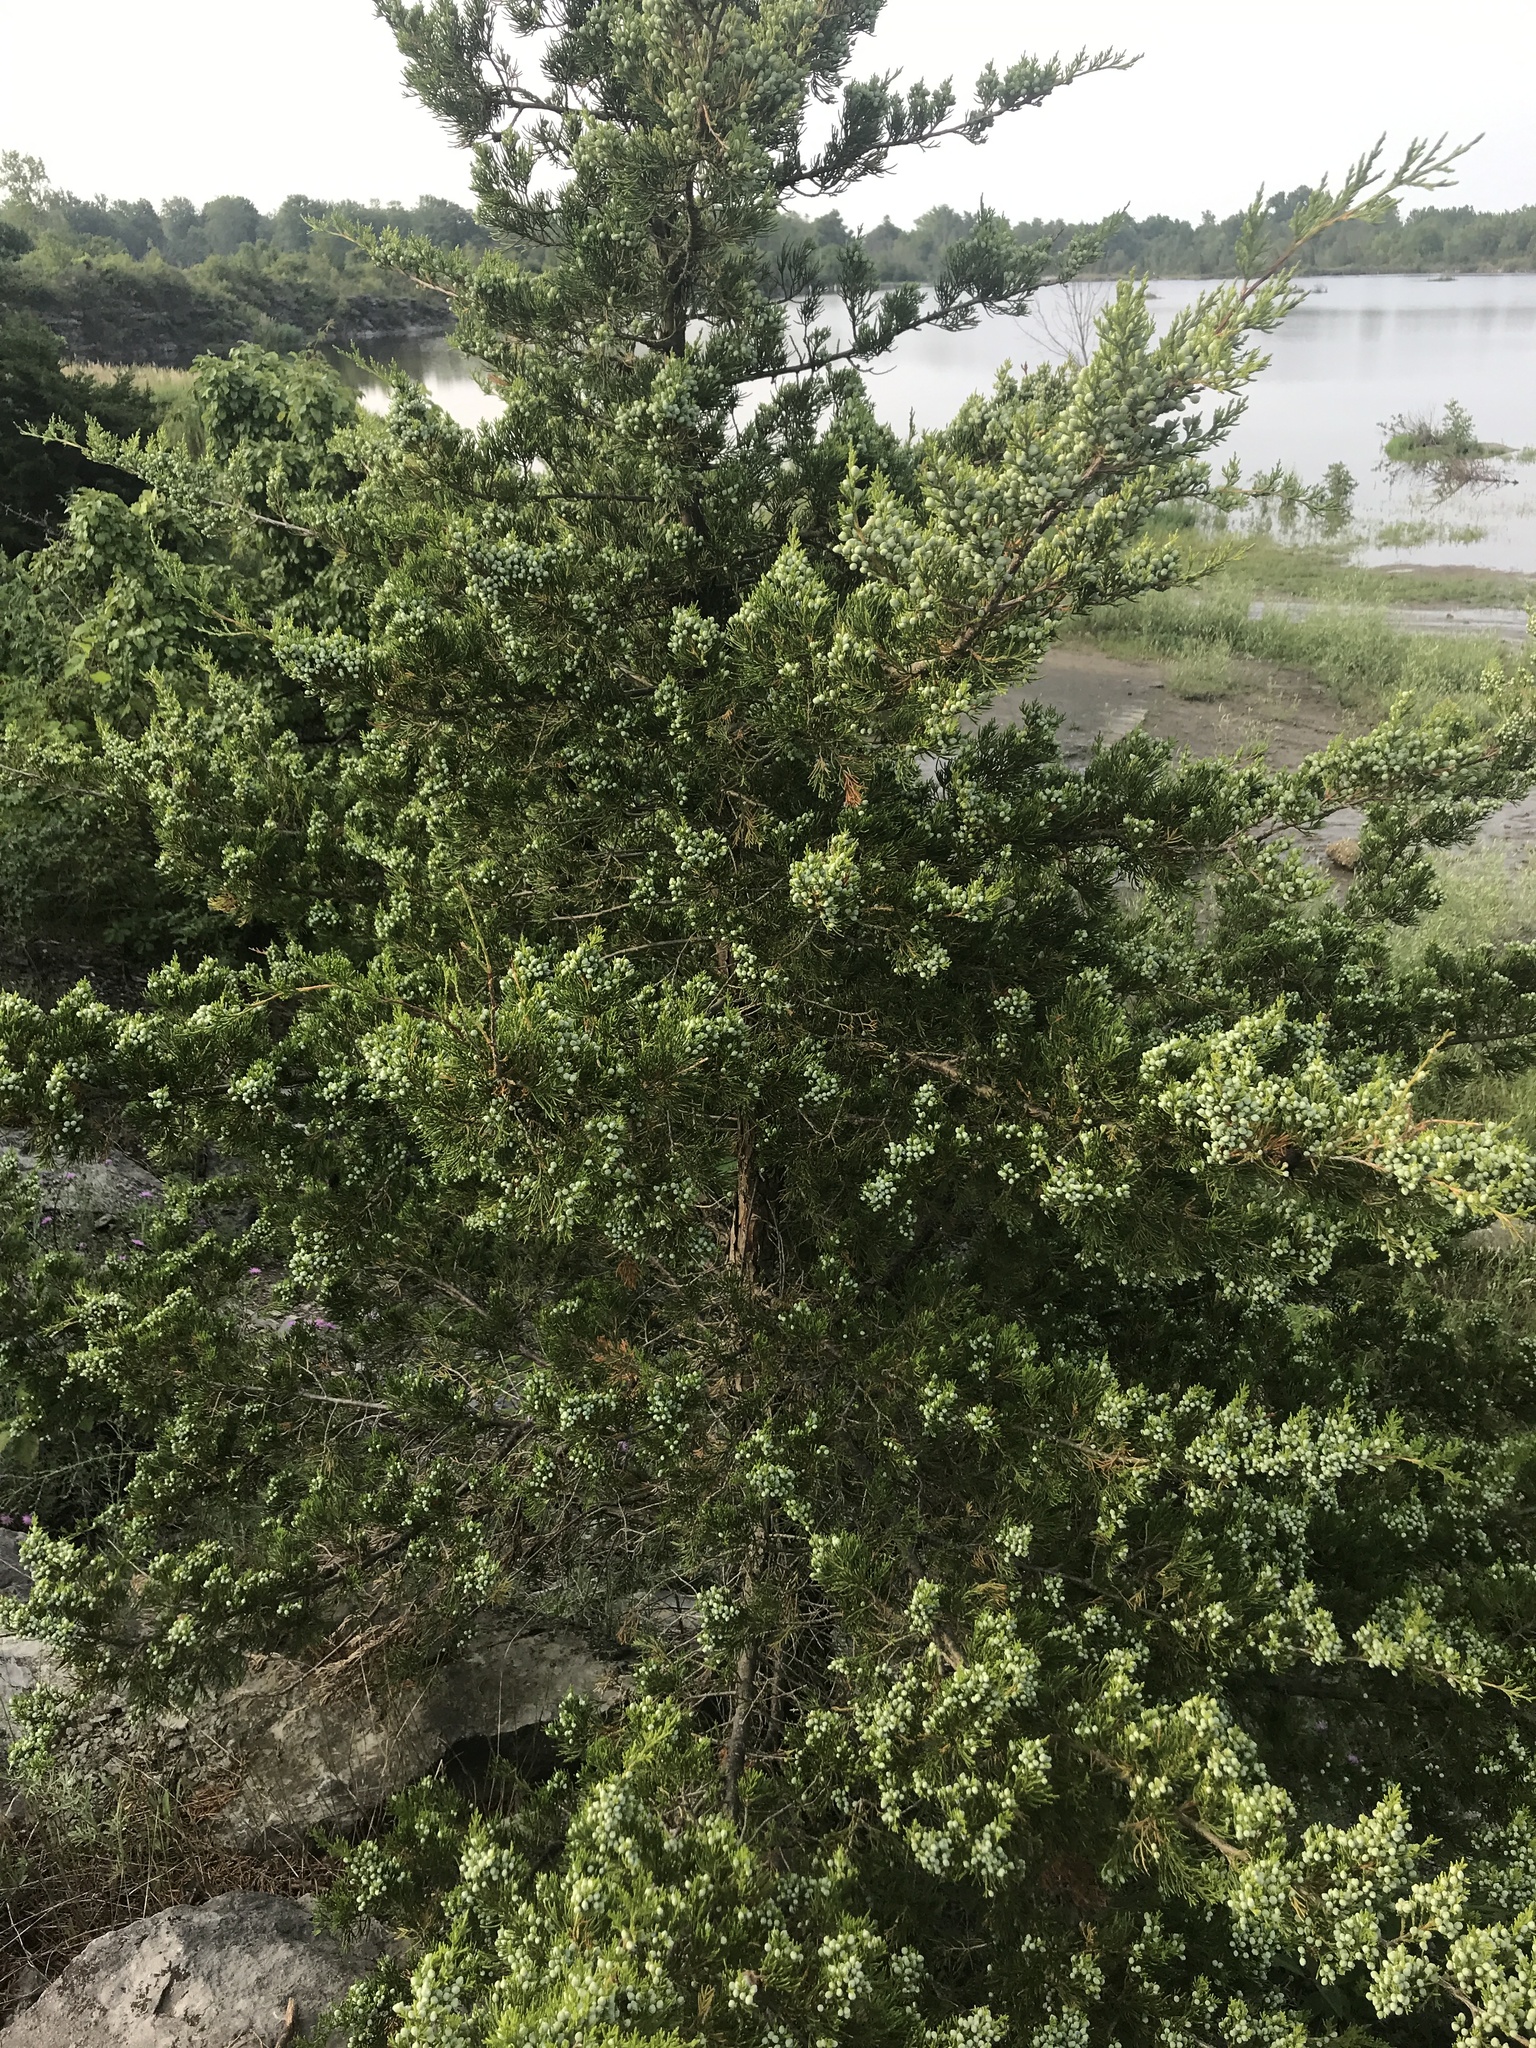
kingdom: Plantae
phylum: Tracheophyta
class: Pinopsida
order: Pinales
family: Cupressaceae
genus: Juniperus
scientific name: Juniperus virginiana
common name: Red juniper
